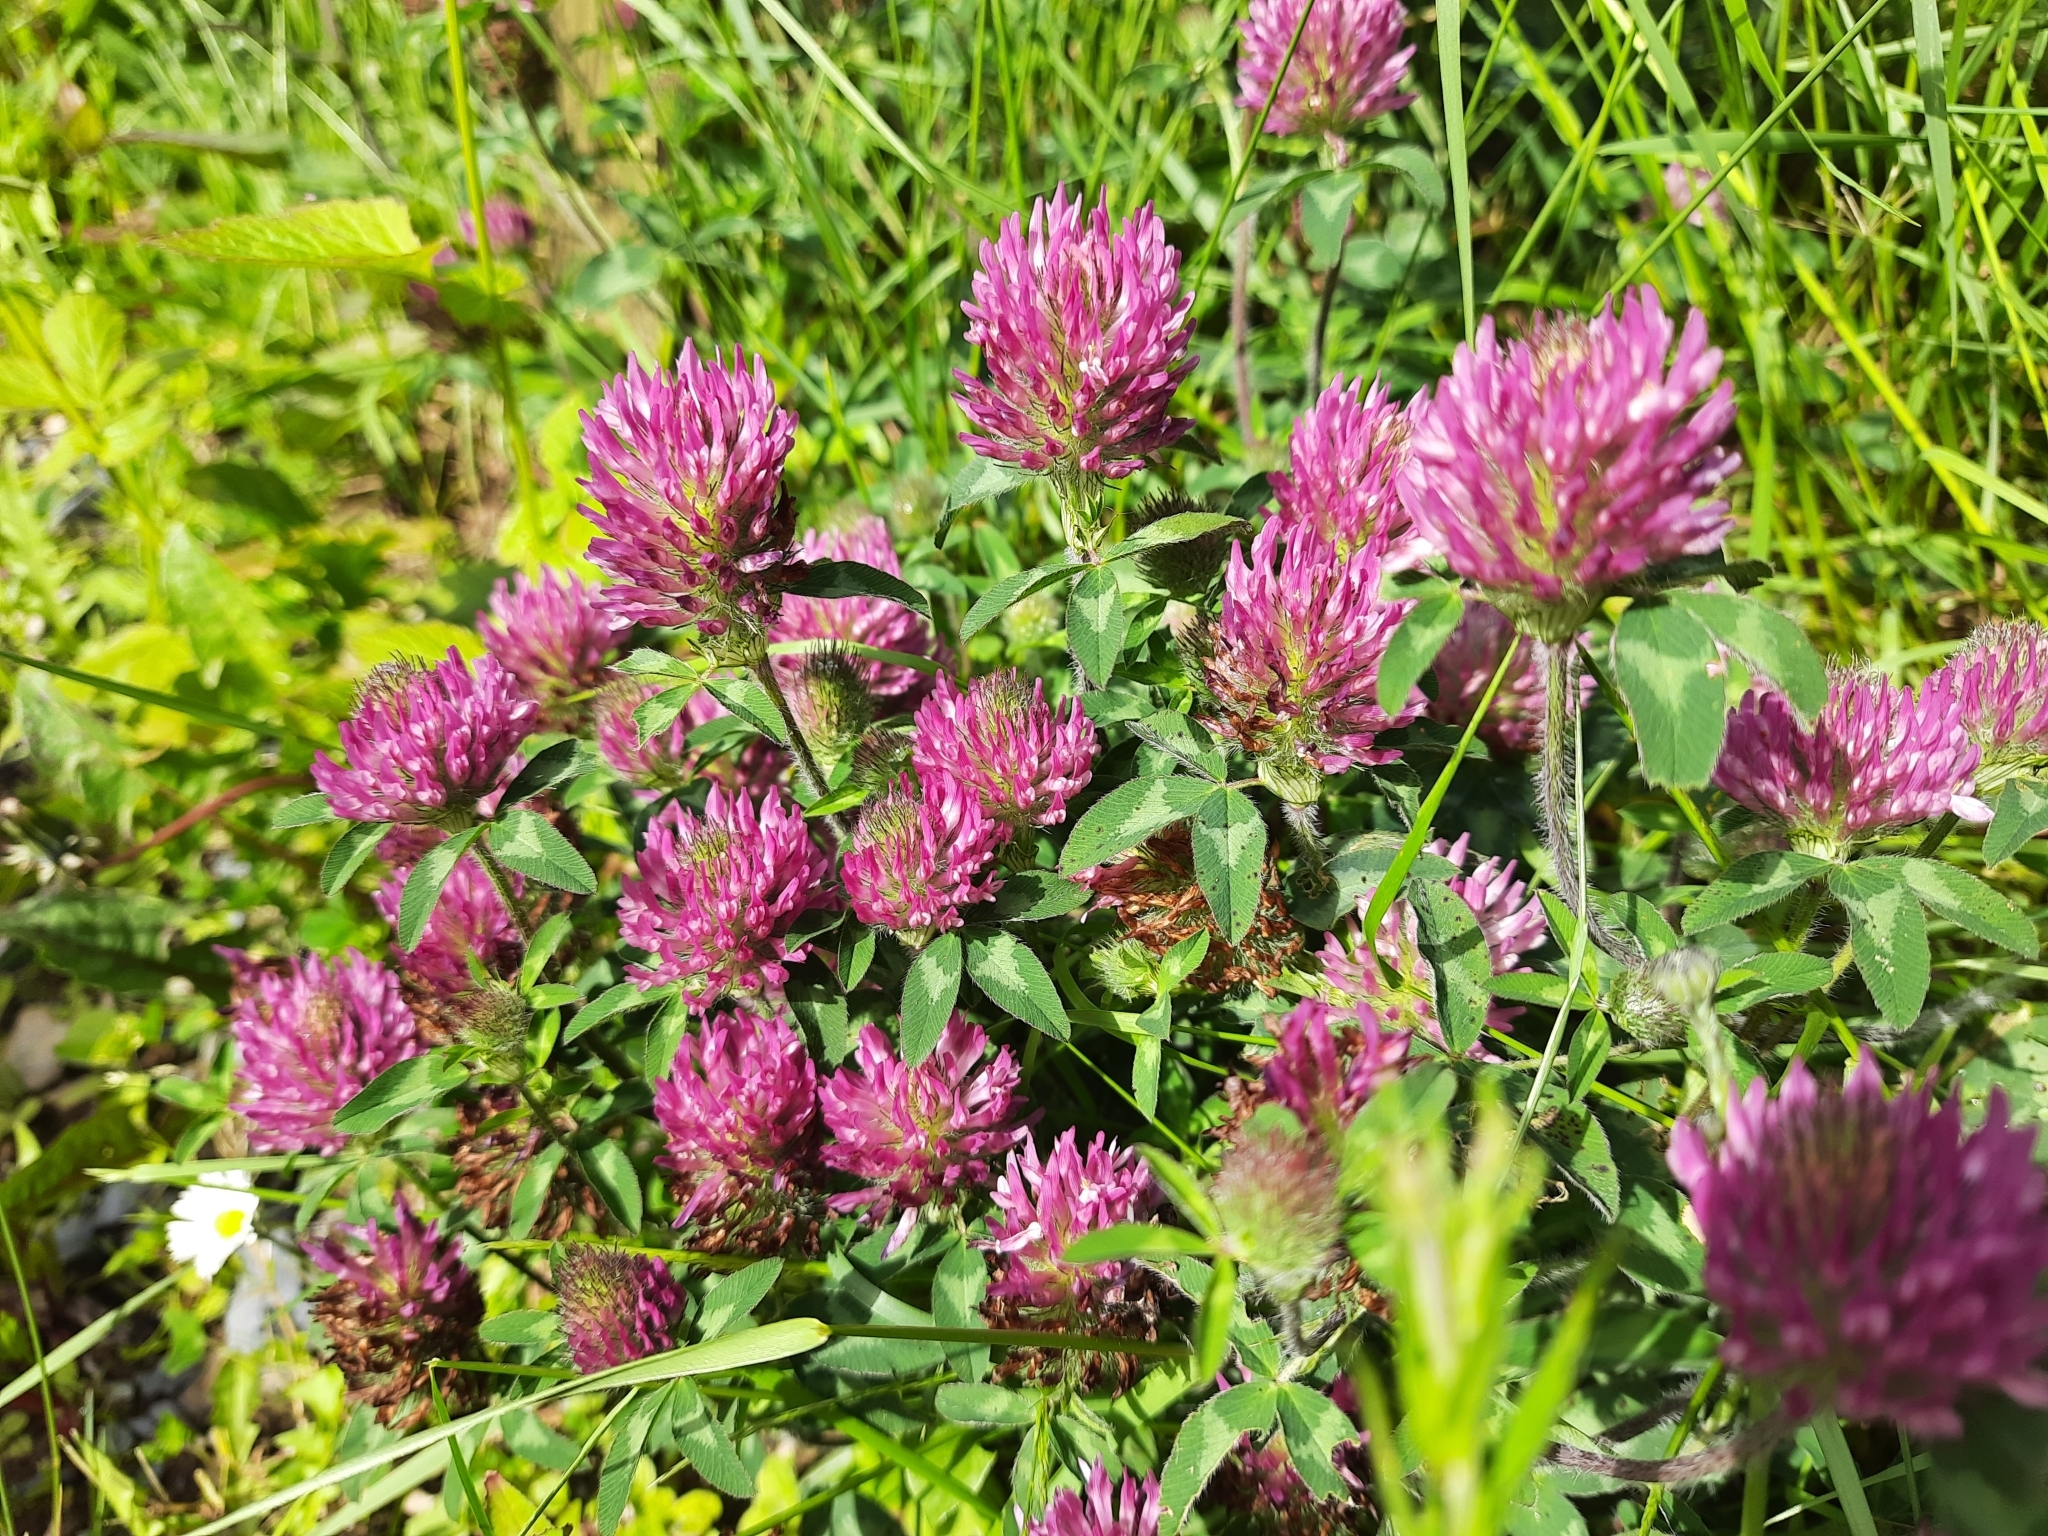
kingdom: Plantae
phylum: Tracheophyta
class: Magnoliopsida
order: Fabales
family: Fabaceae
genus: Trifolium
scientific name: Trifolium pratense
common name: Red clover
